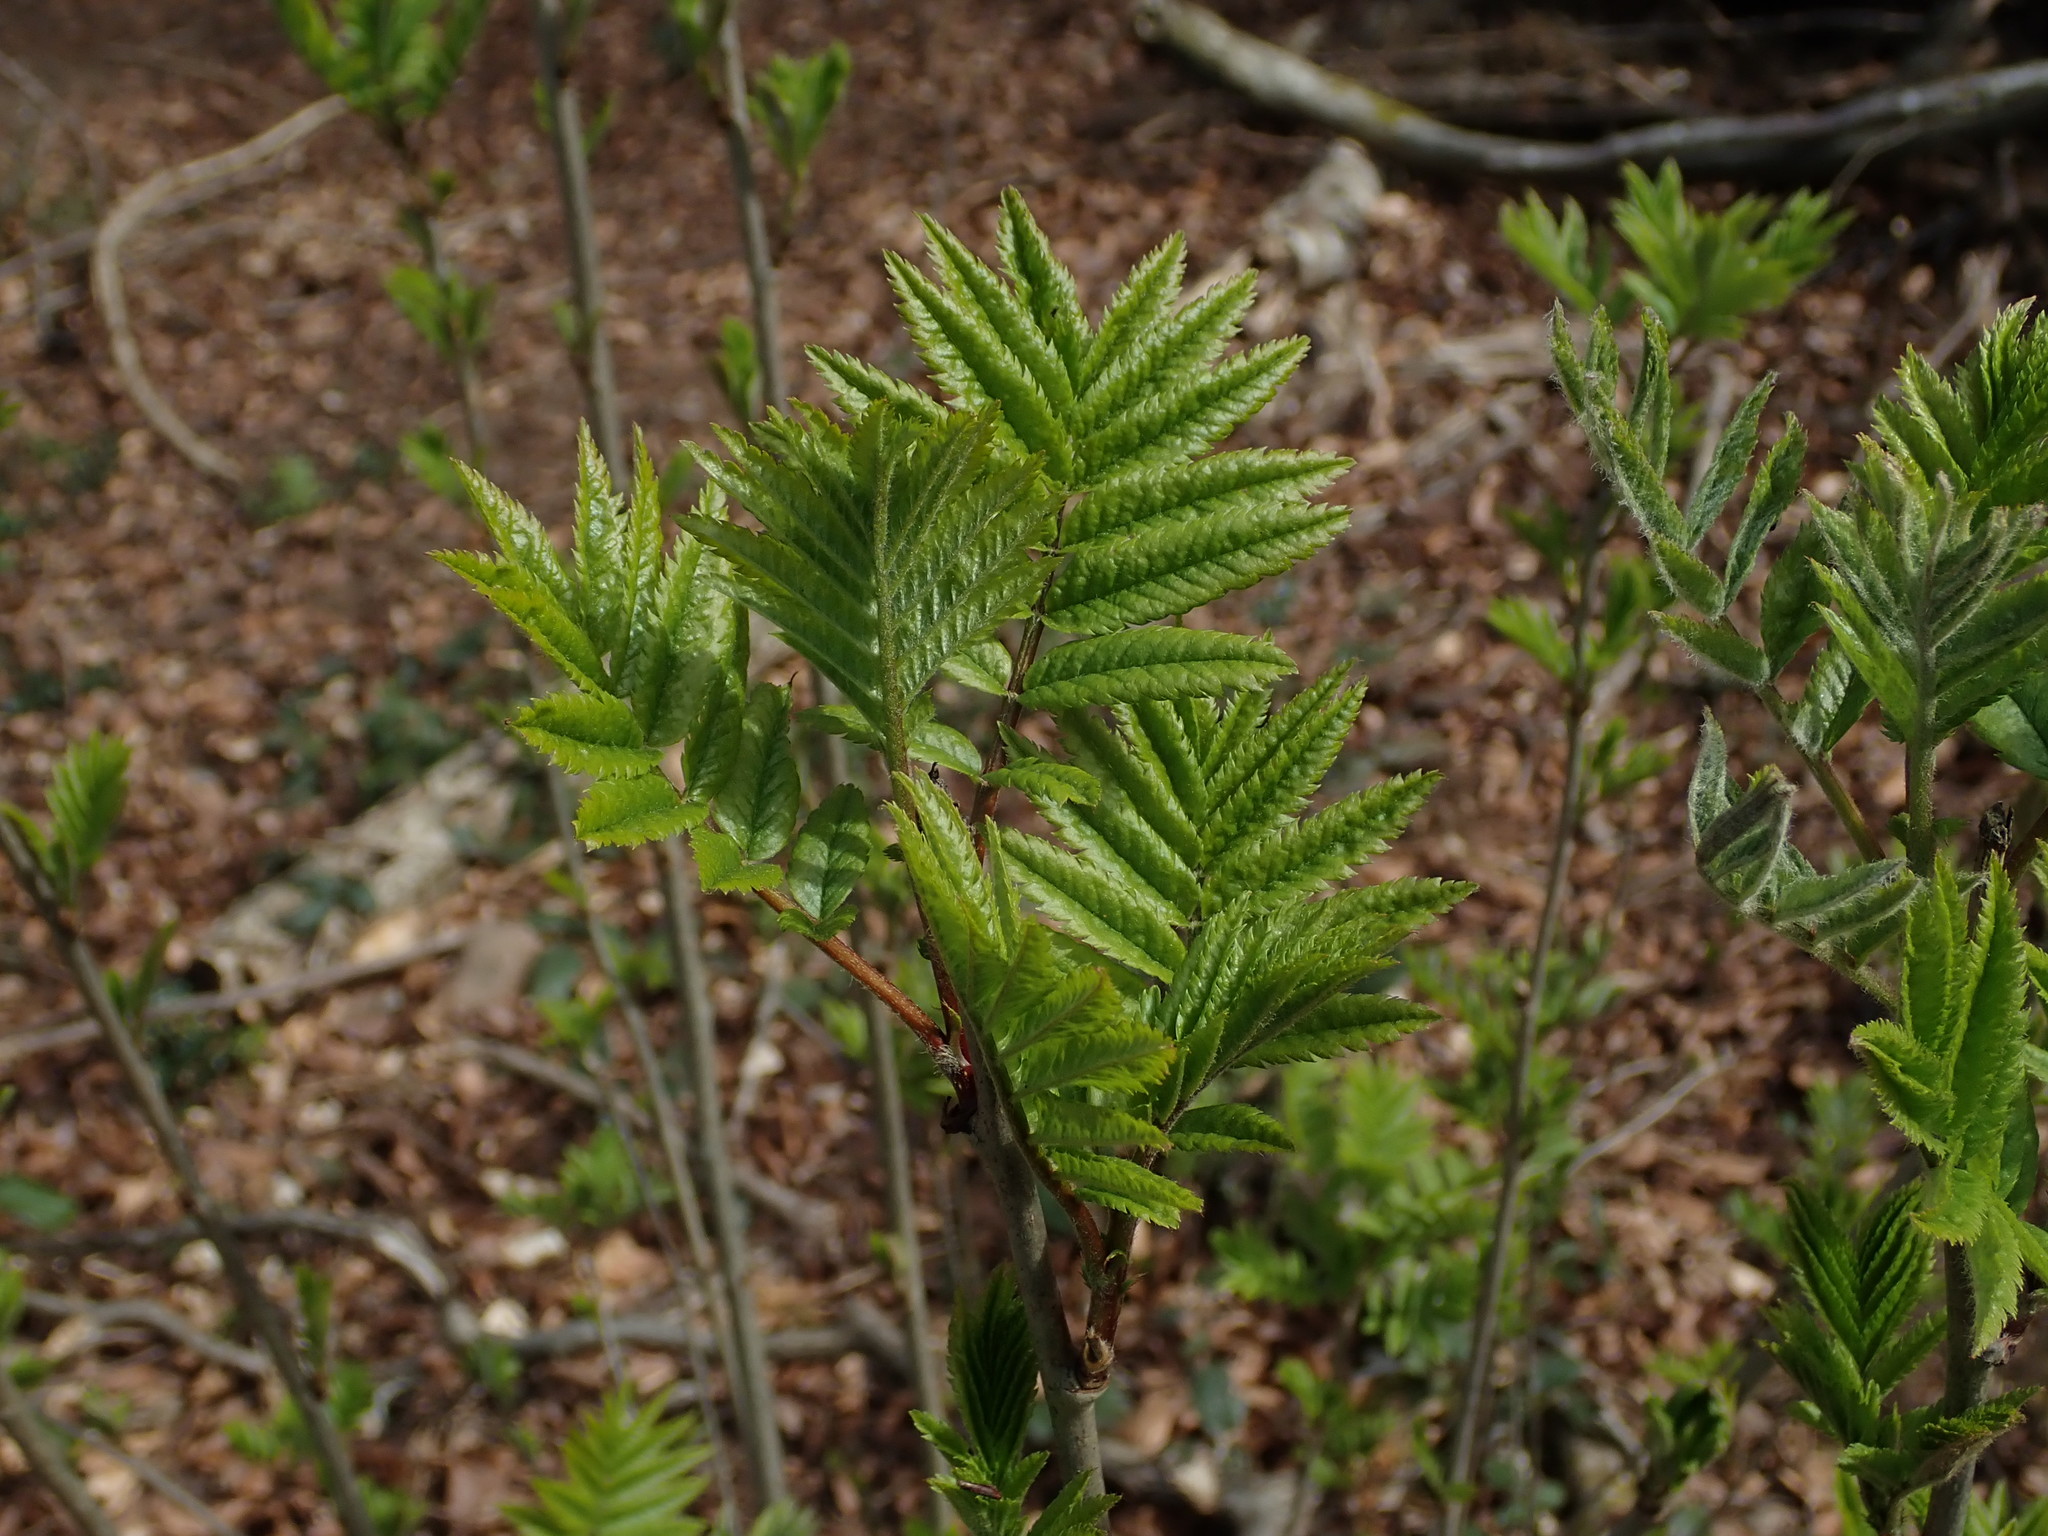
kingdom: Plantae
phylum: Tracheophyta
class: Magnoliopsida
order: Rosales
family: Rosaceae
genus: Sorbus
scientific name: Sorbus aucuparia
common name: Rowan
